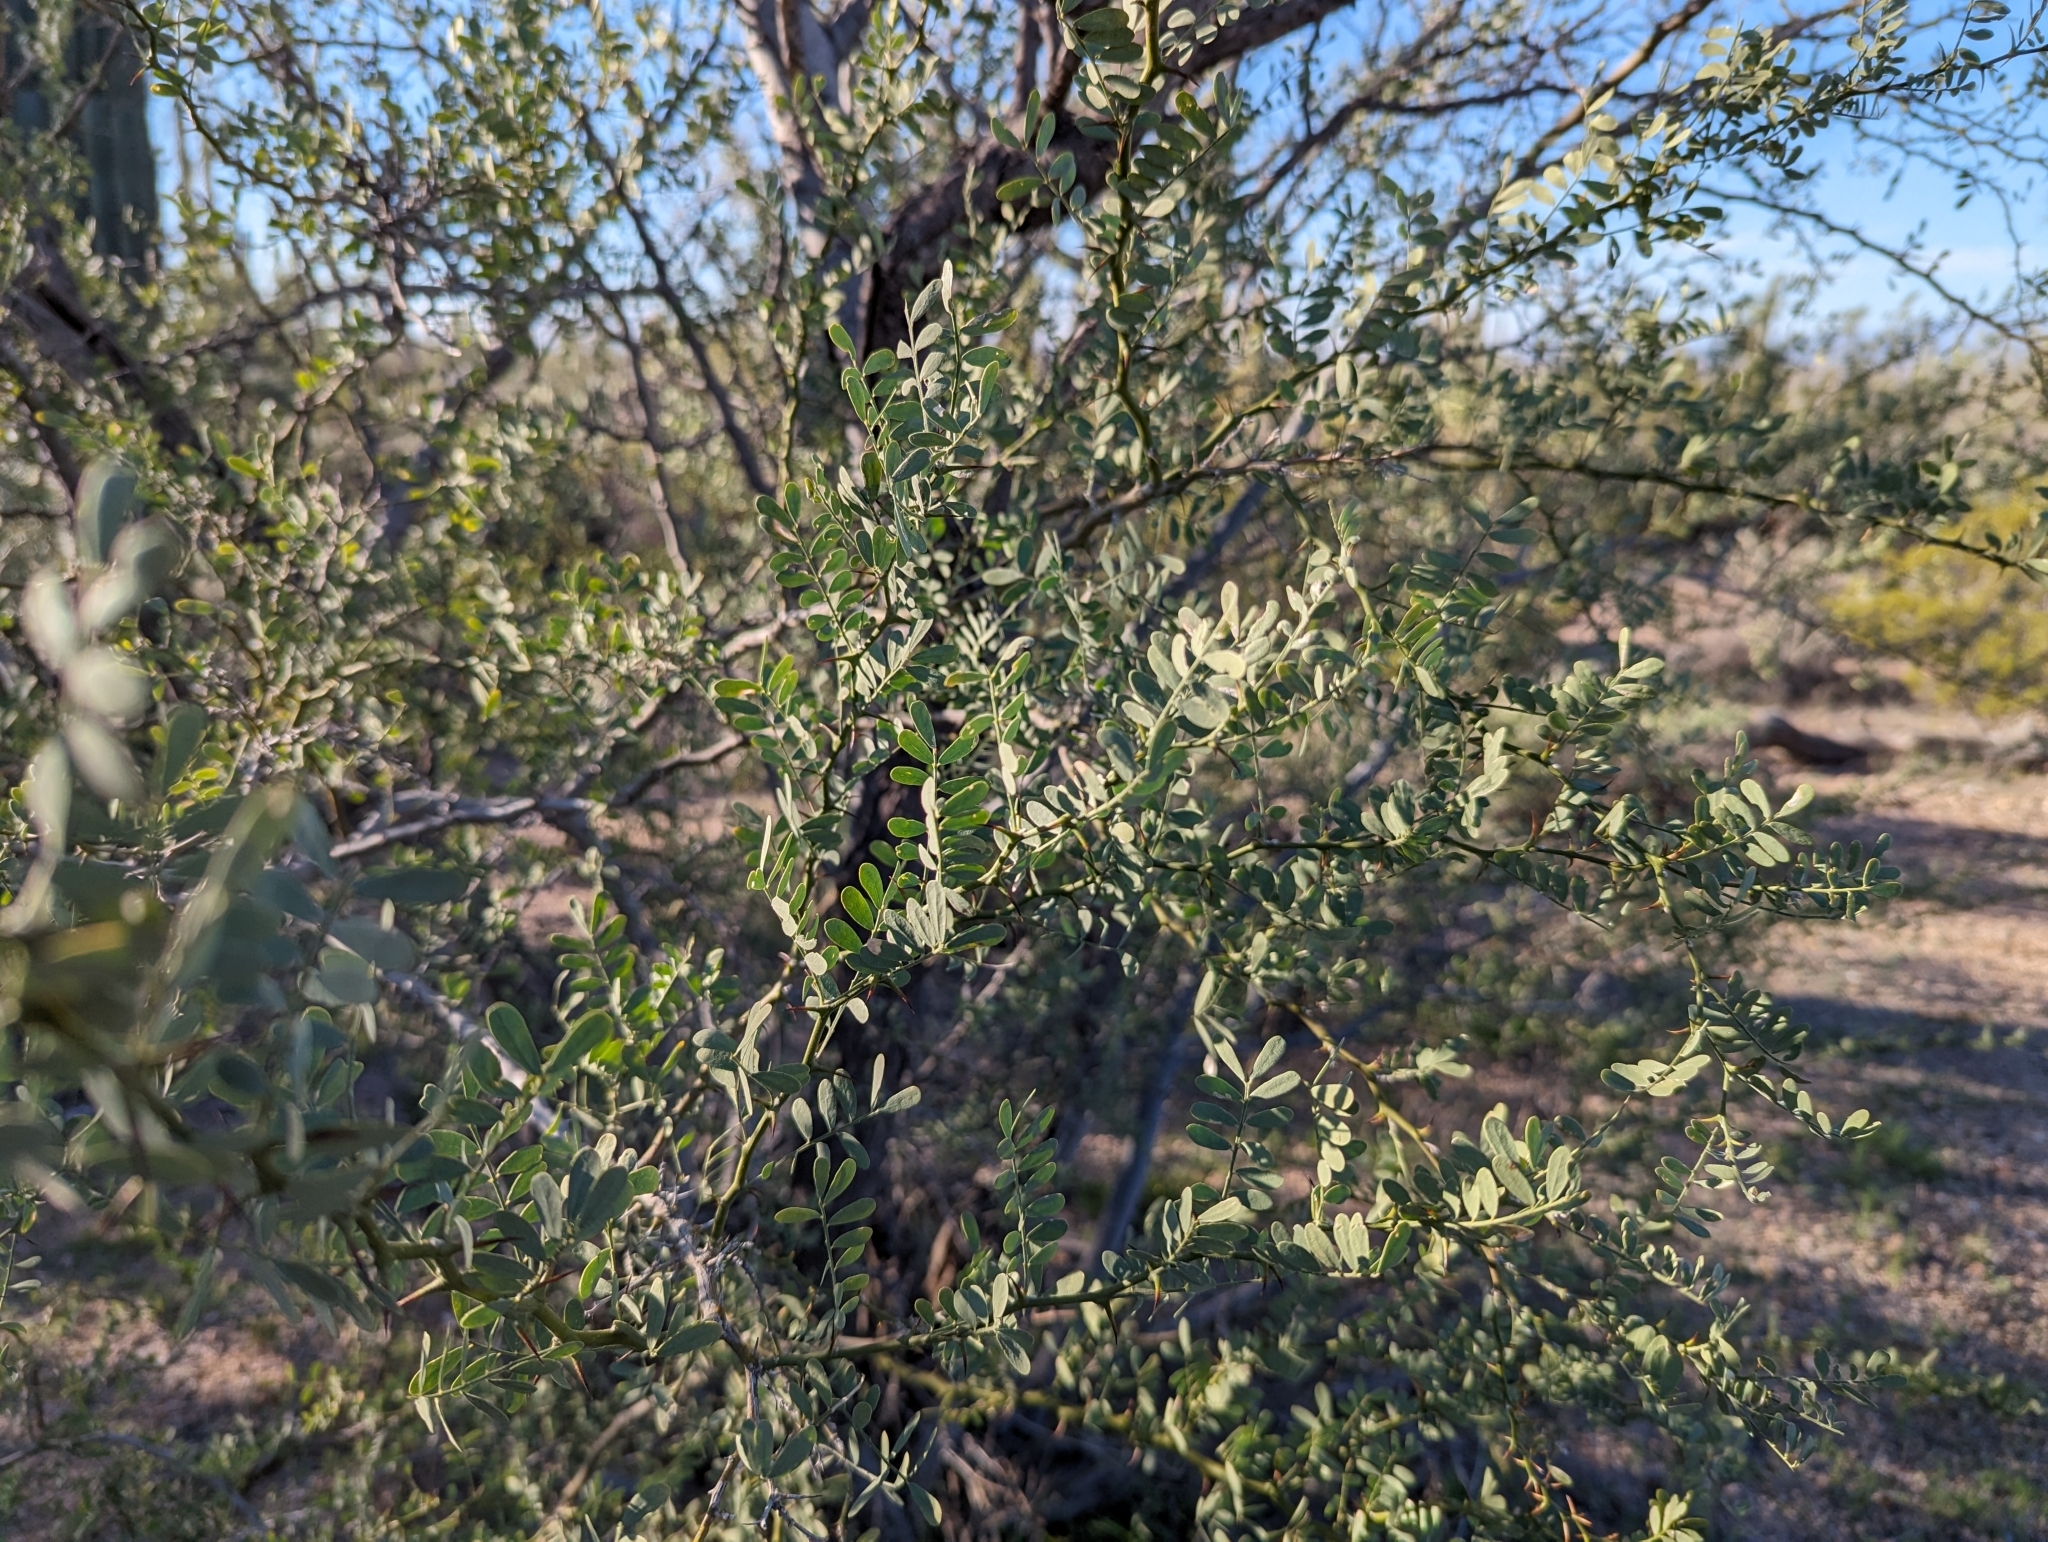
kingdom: Plantae
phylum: Tracheophyta
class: Magnoliopsida
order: Fabales
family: Fabaceae
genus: Olneya
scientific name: Olneya tesota
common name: Desert ironwood
